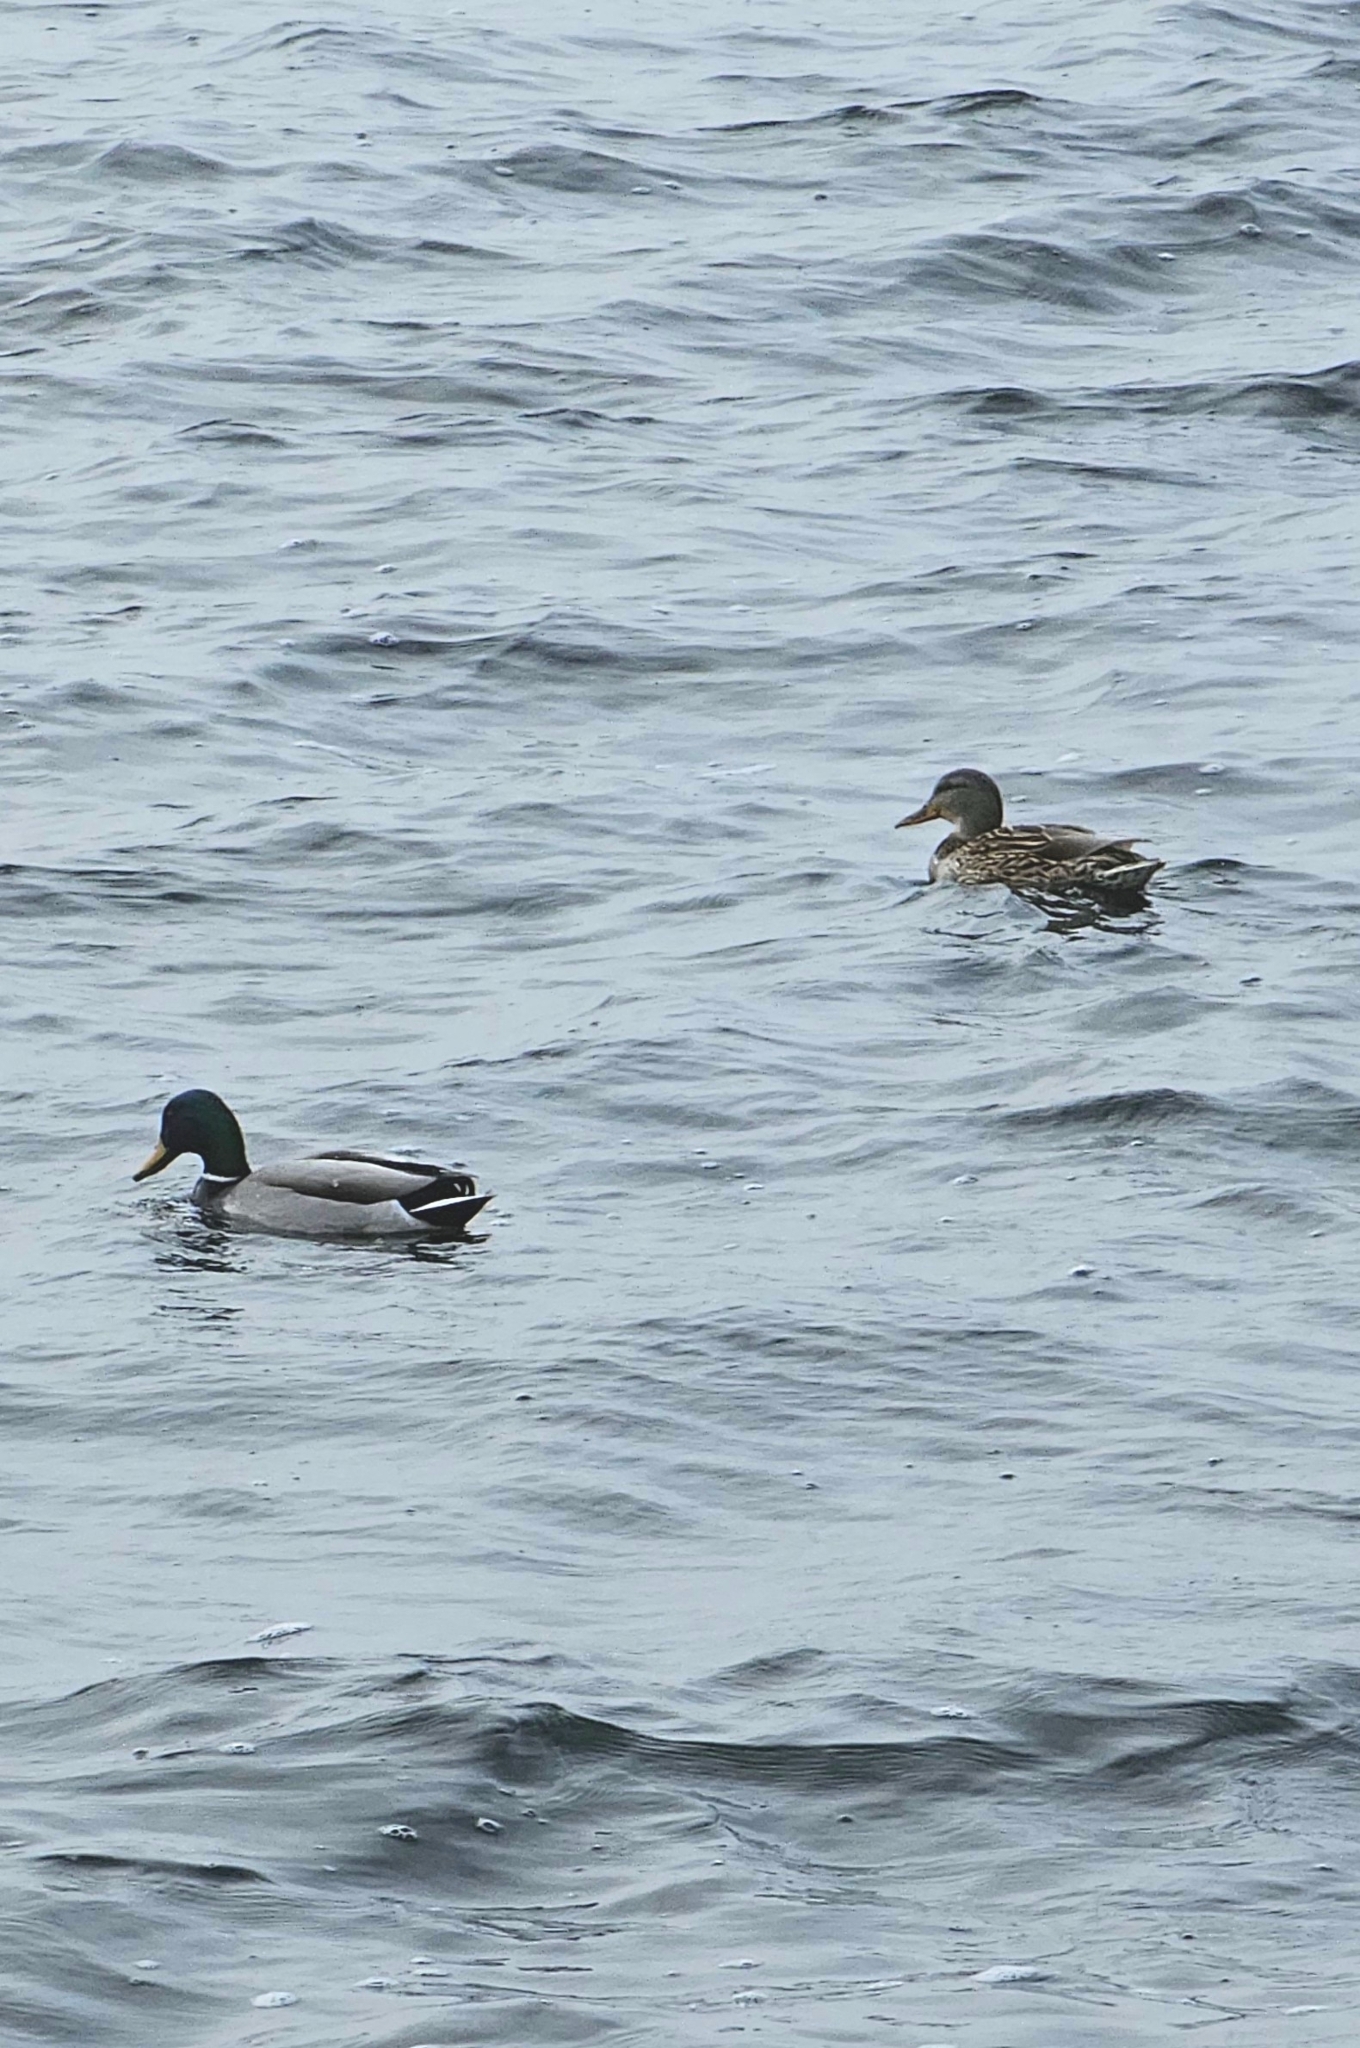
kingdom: Animalia
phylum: Chordata
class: Aves
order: Anseriformes
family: Anatidae
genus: Anas
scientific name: Anas platyrhynchos
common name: Mallard
